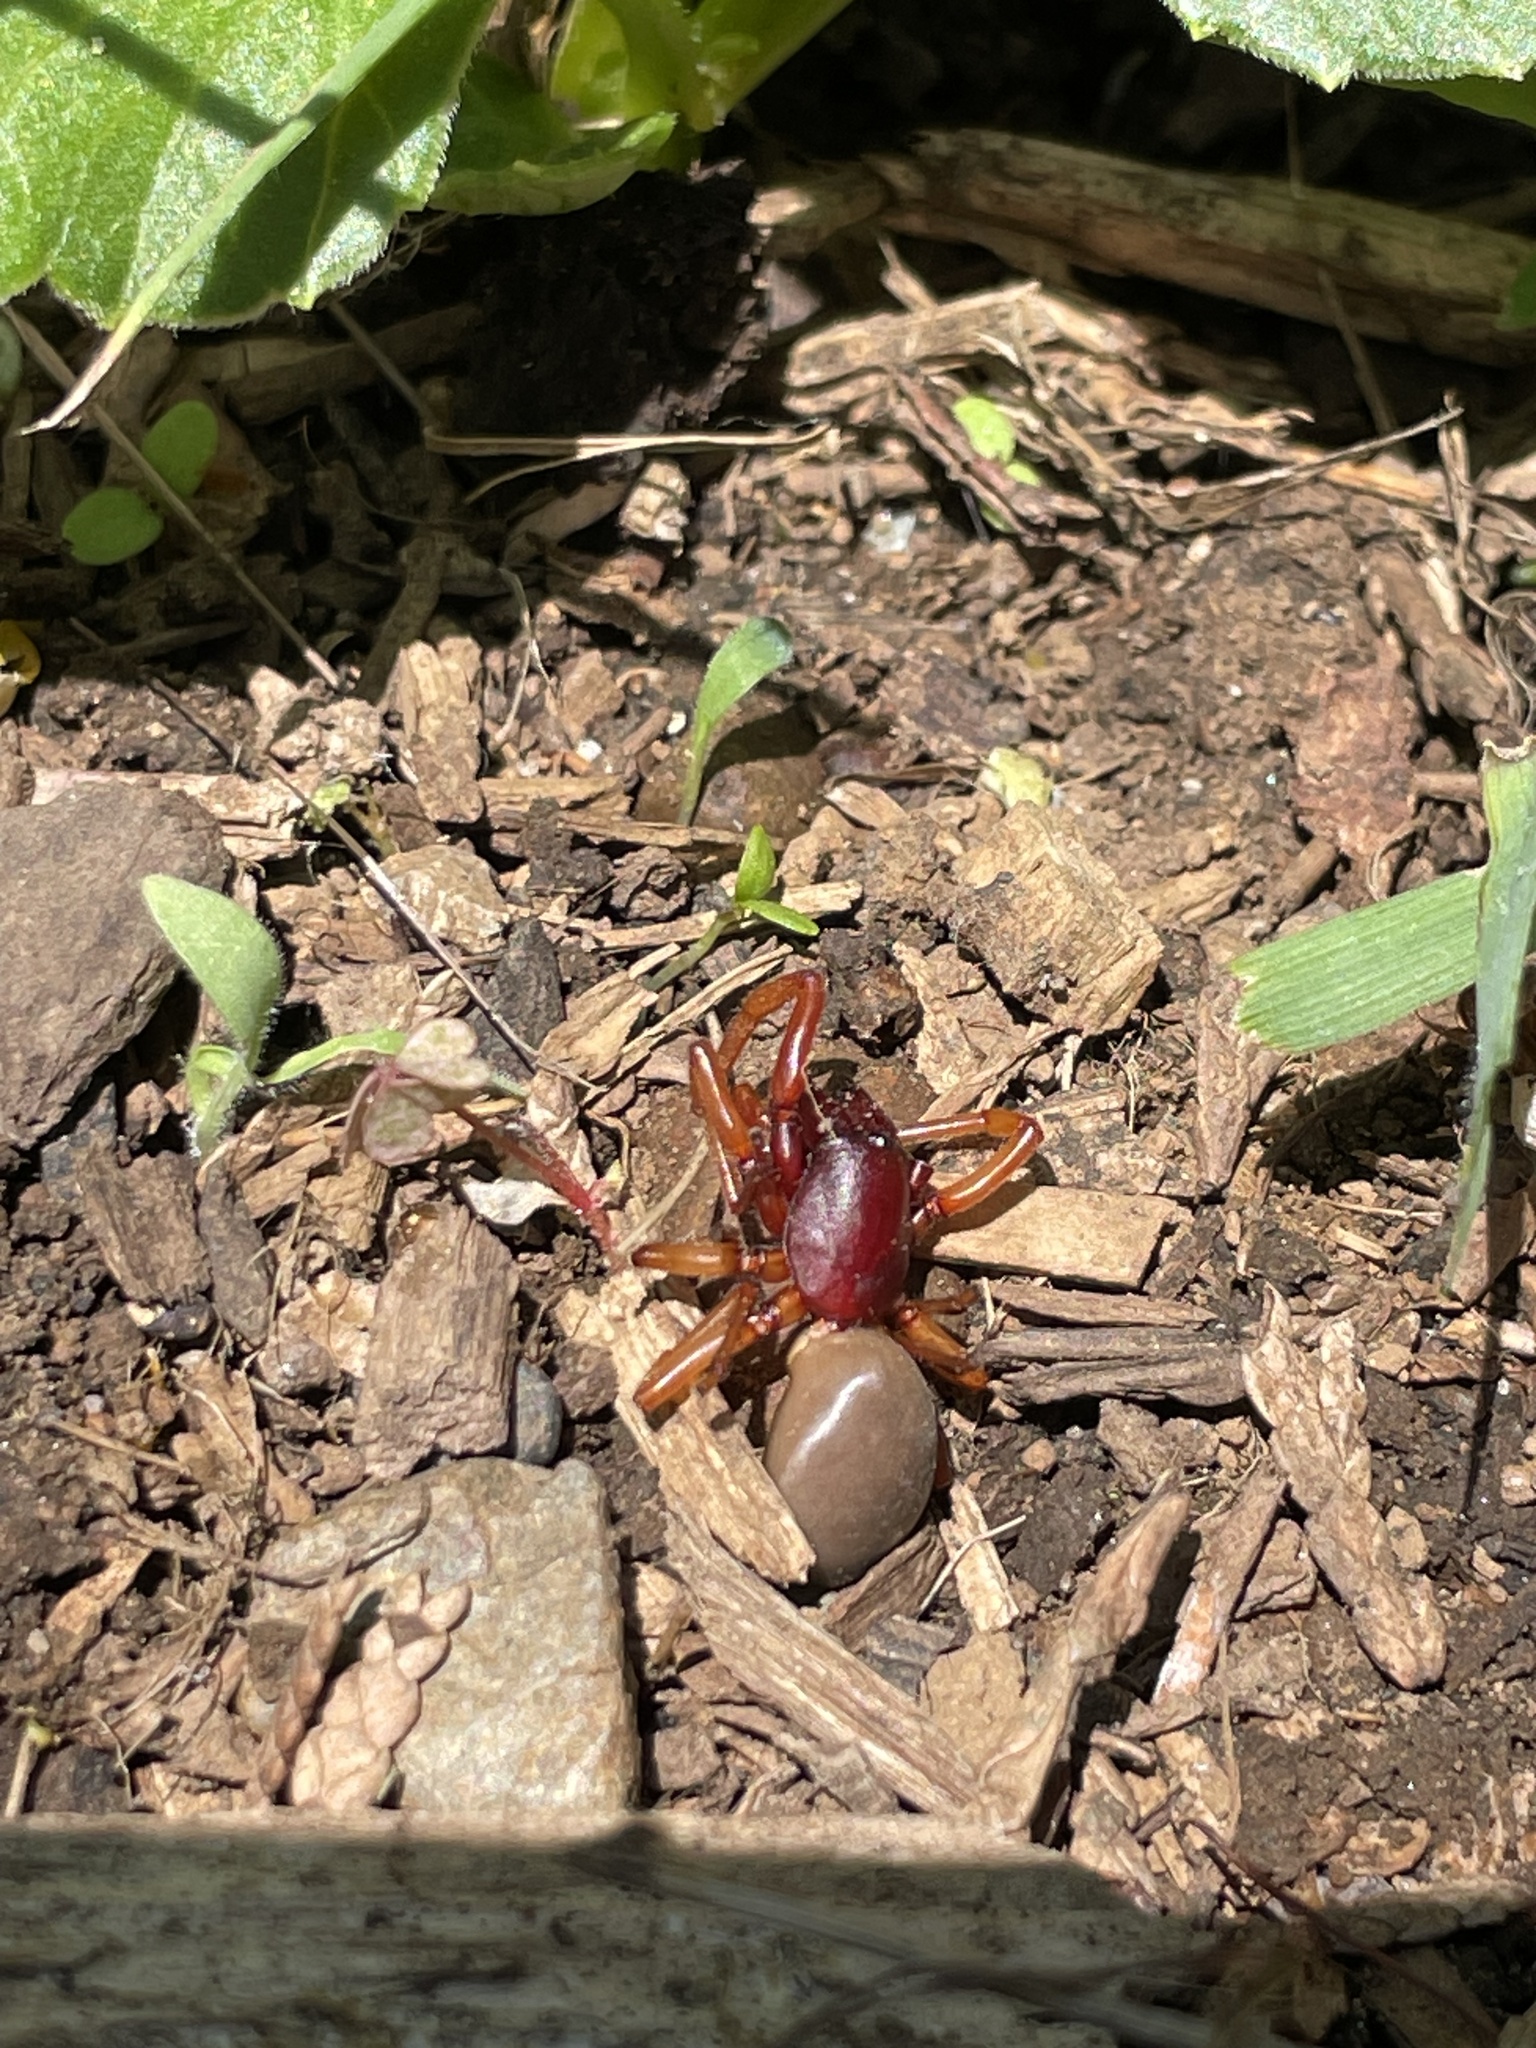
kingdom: Animalia
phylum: Arthropoda
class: Arachnida
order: Araneae
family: Dysderidae
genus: Dysdera
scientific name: Dysdera crocata
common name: Woodlouse spider
